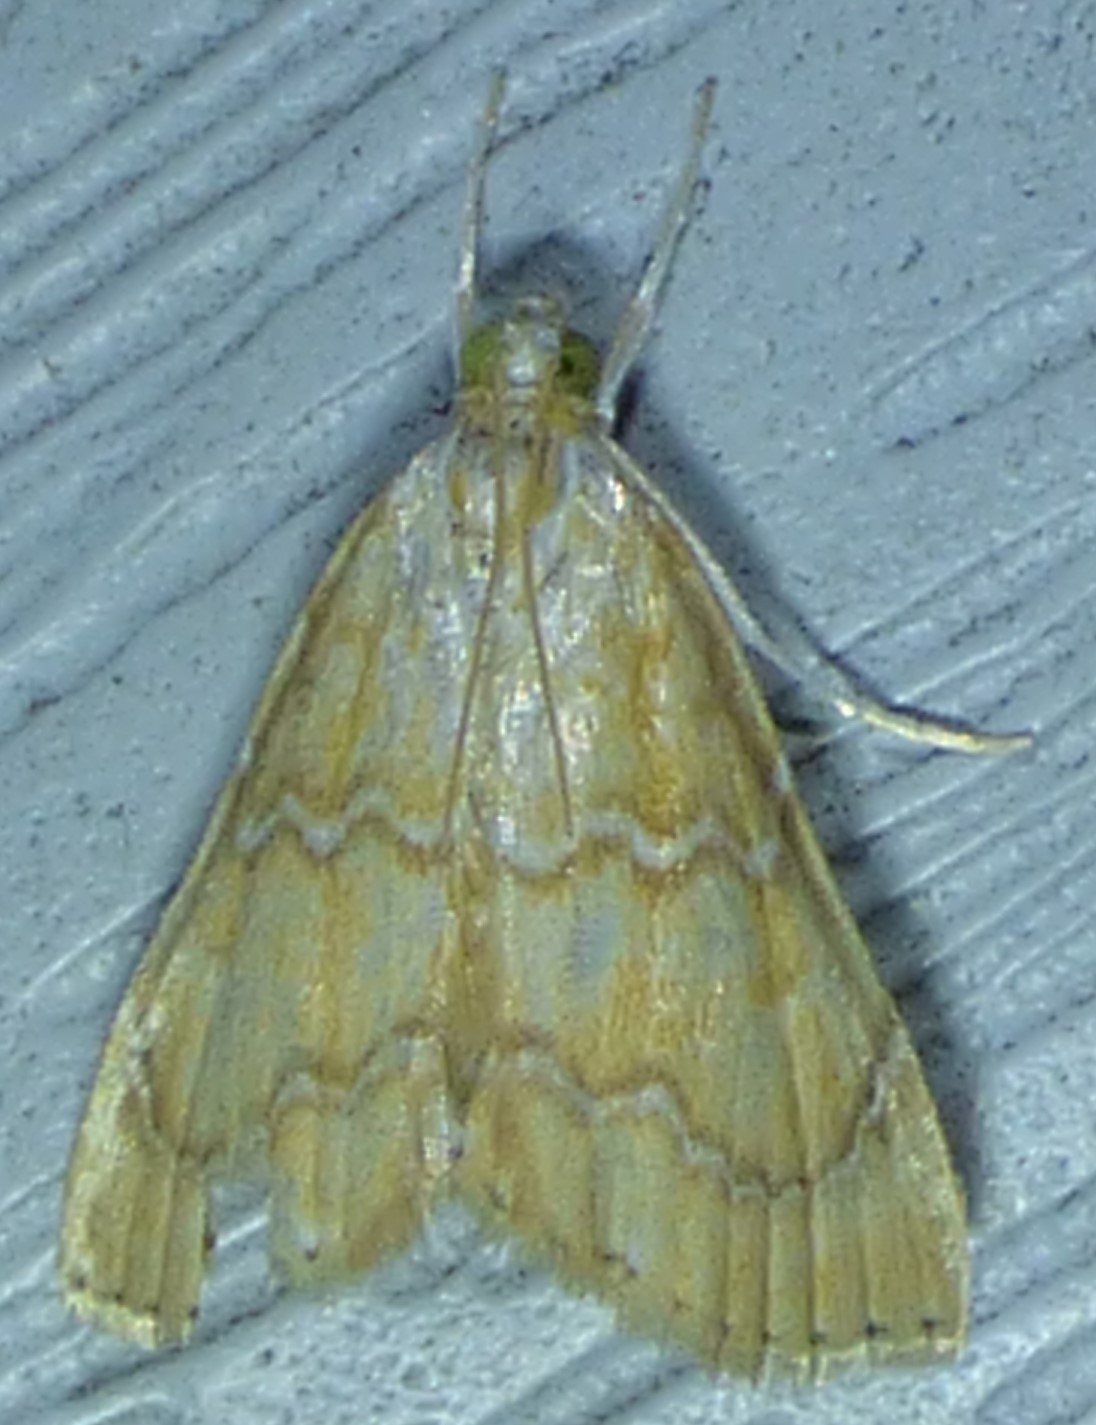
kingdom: Animalia
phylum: Arthropoda
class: Insecta
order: Lepidoptera
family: Crambidae
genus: Glaphyria
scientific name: Glaphyria sesquistrialis
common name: White-roped glaphyria
